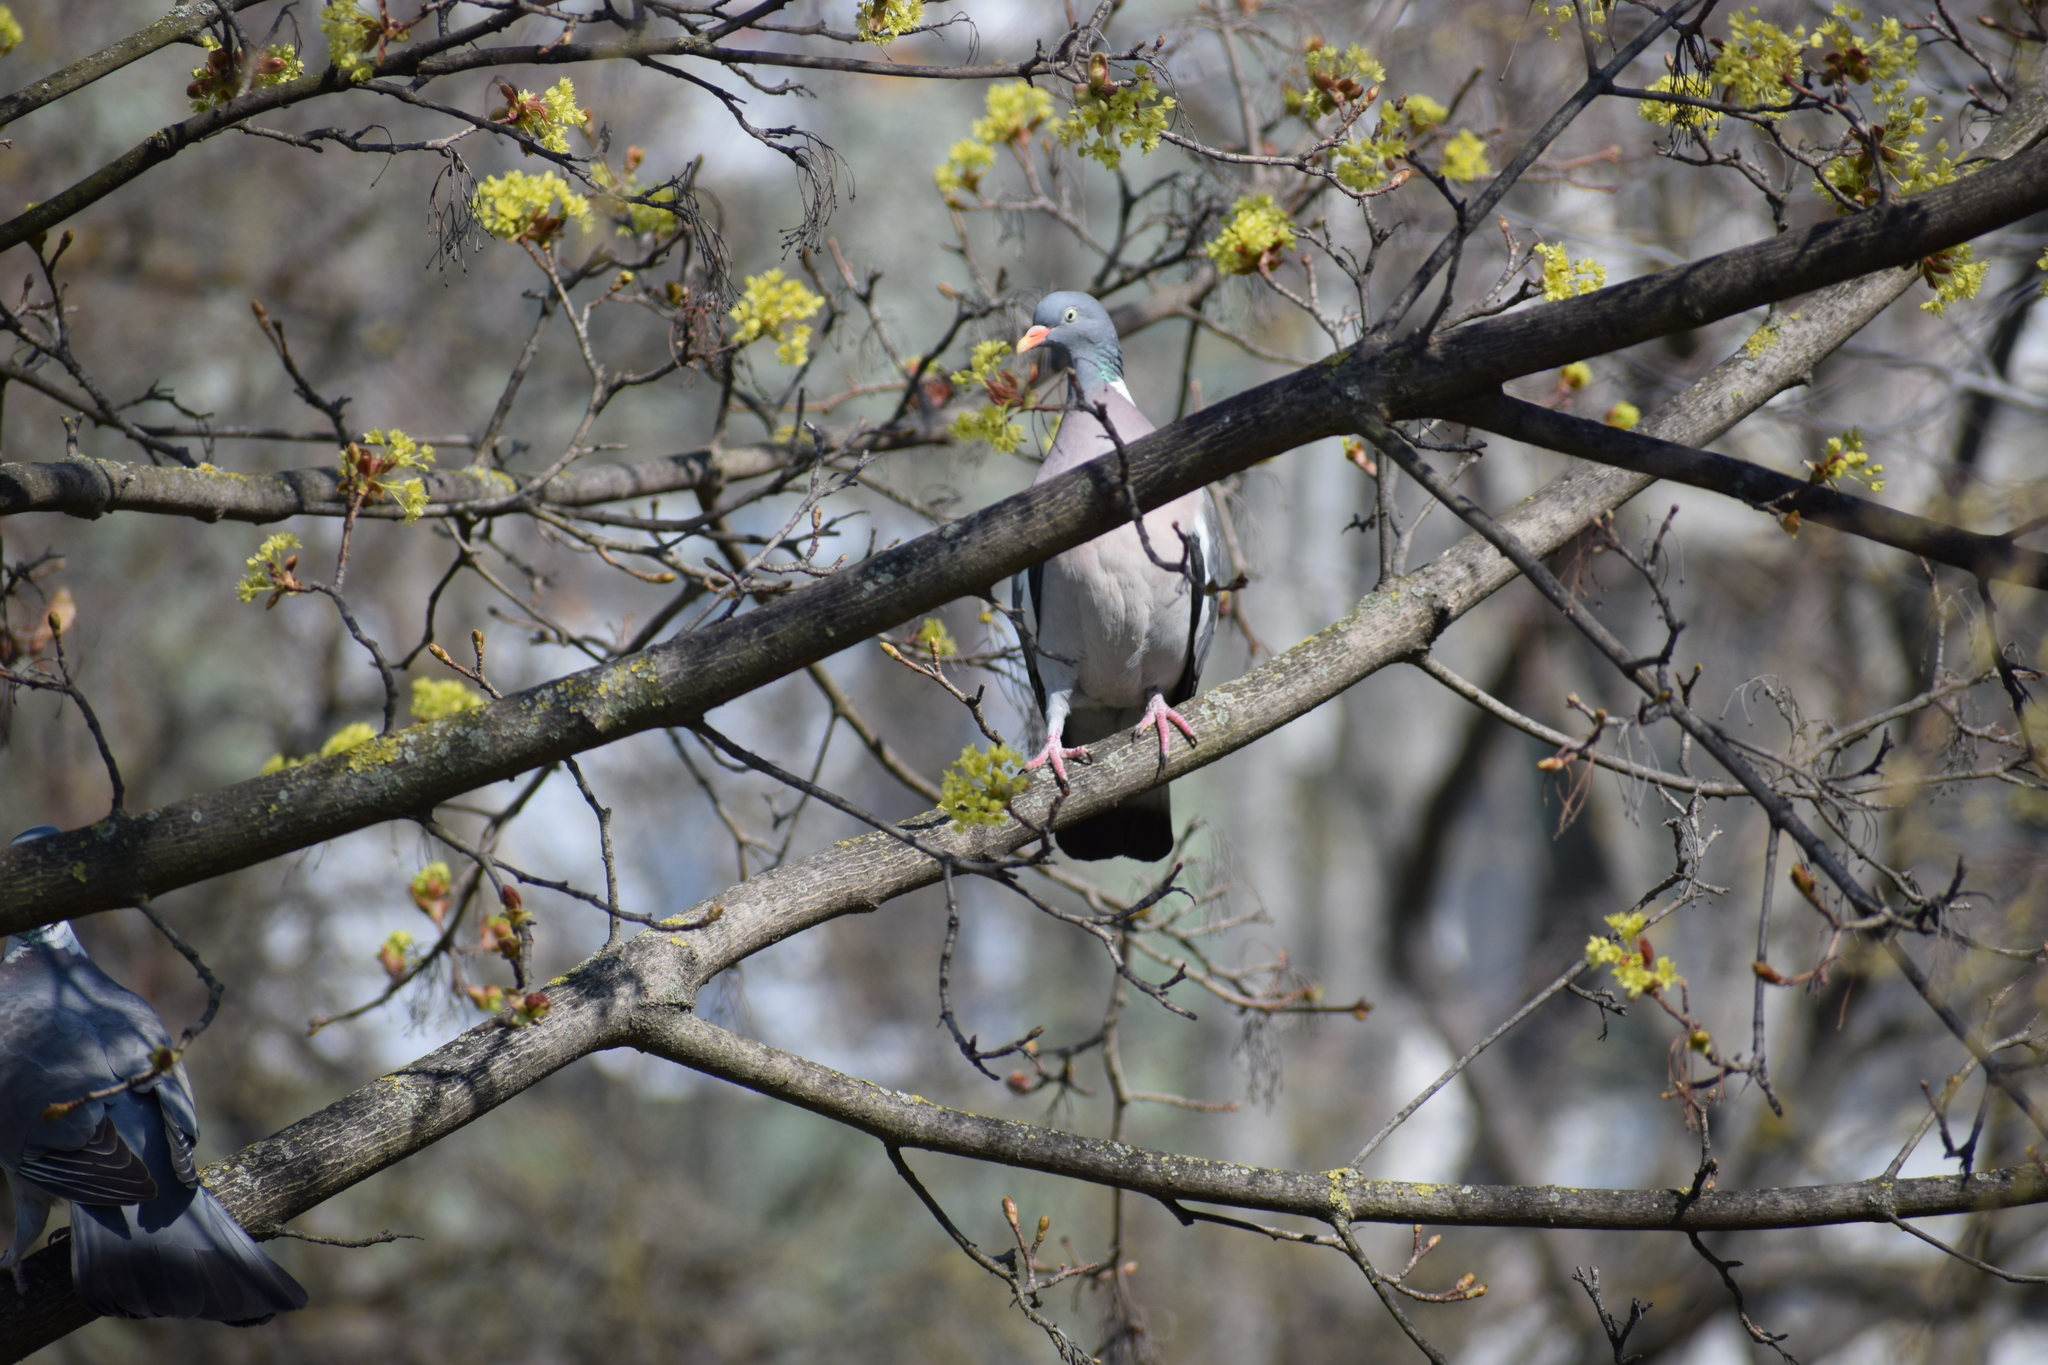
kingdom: Animalia
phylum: Chordata
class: Aves
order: Columbiformes
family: Columbidae
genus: Columba
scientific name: Columba palumbus
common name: Common wood pigeon
